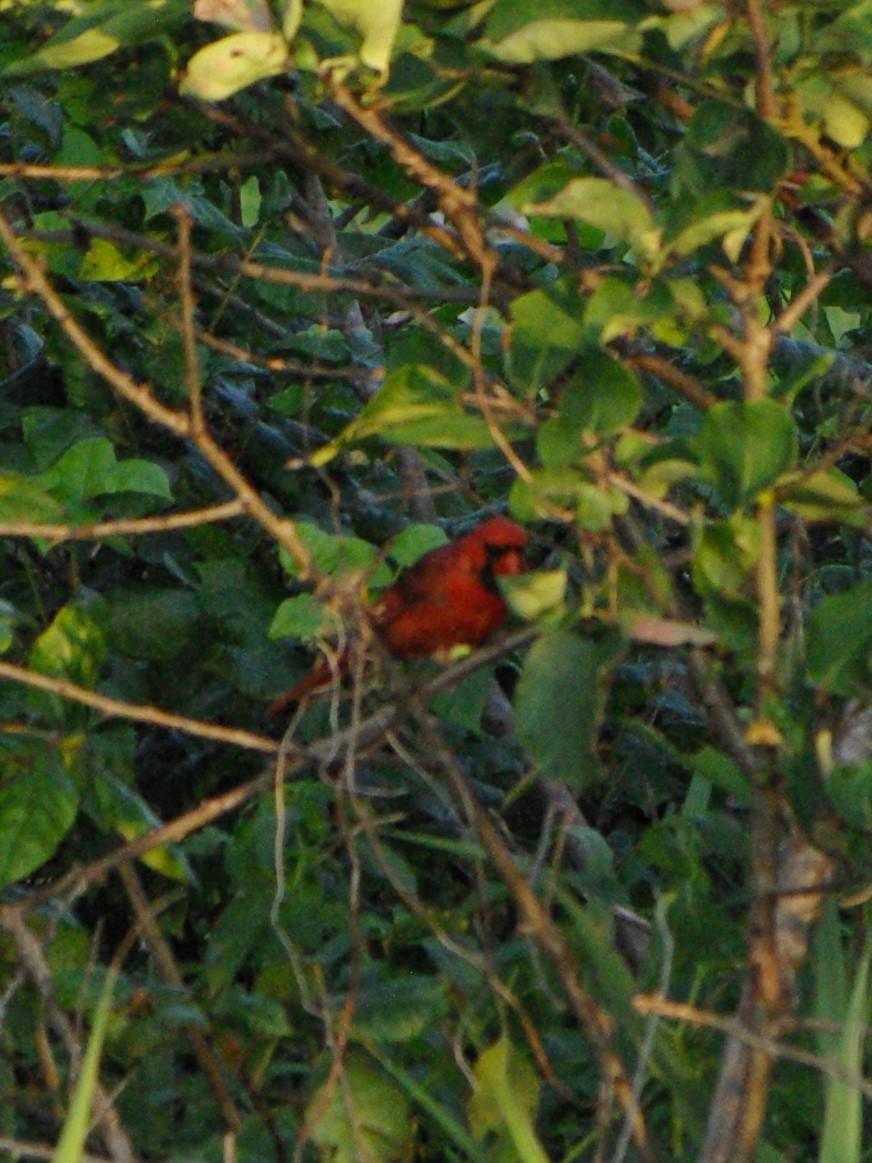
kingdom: Animalia
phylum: Chordata
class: Aves
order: Passeriformes
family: Cardinalidae
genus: Cardinalis
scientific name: Cardinalis cardinalis
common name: Northern cardinal
